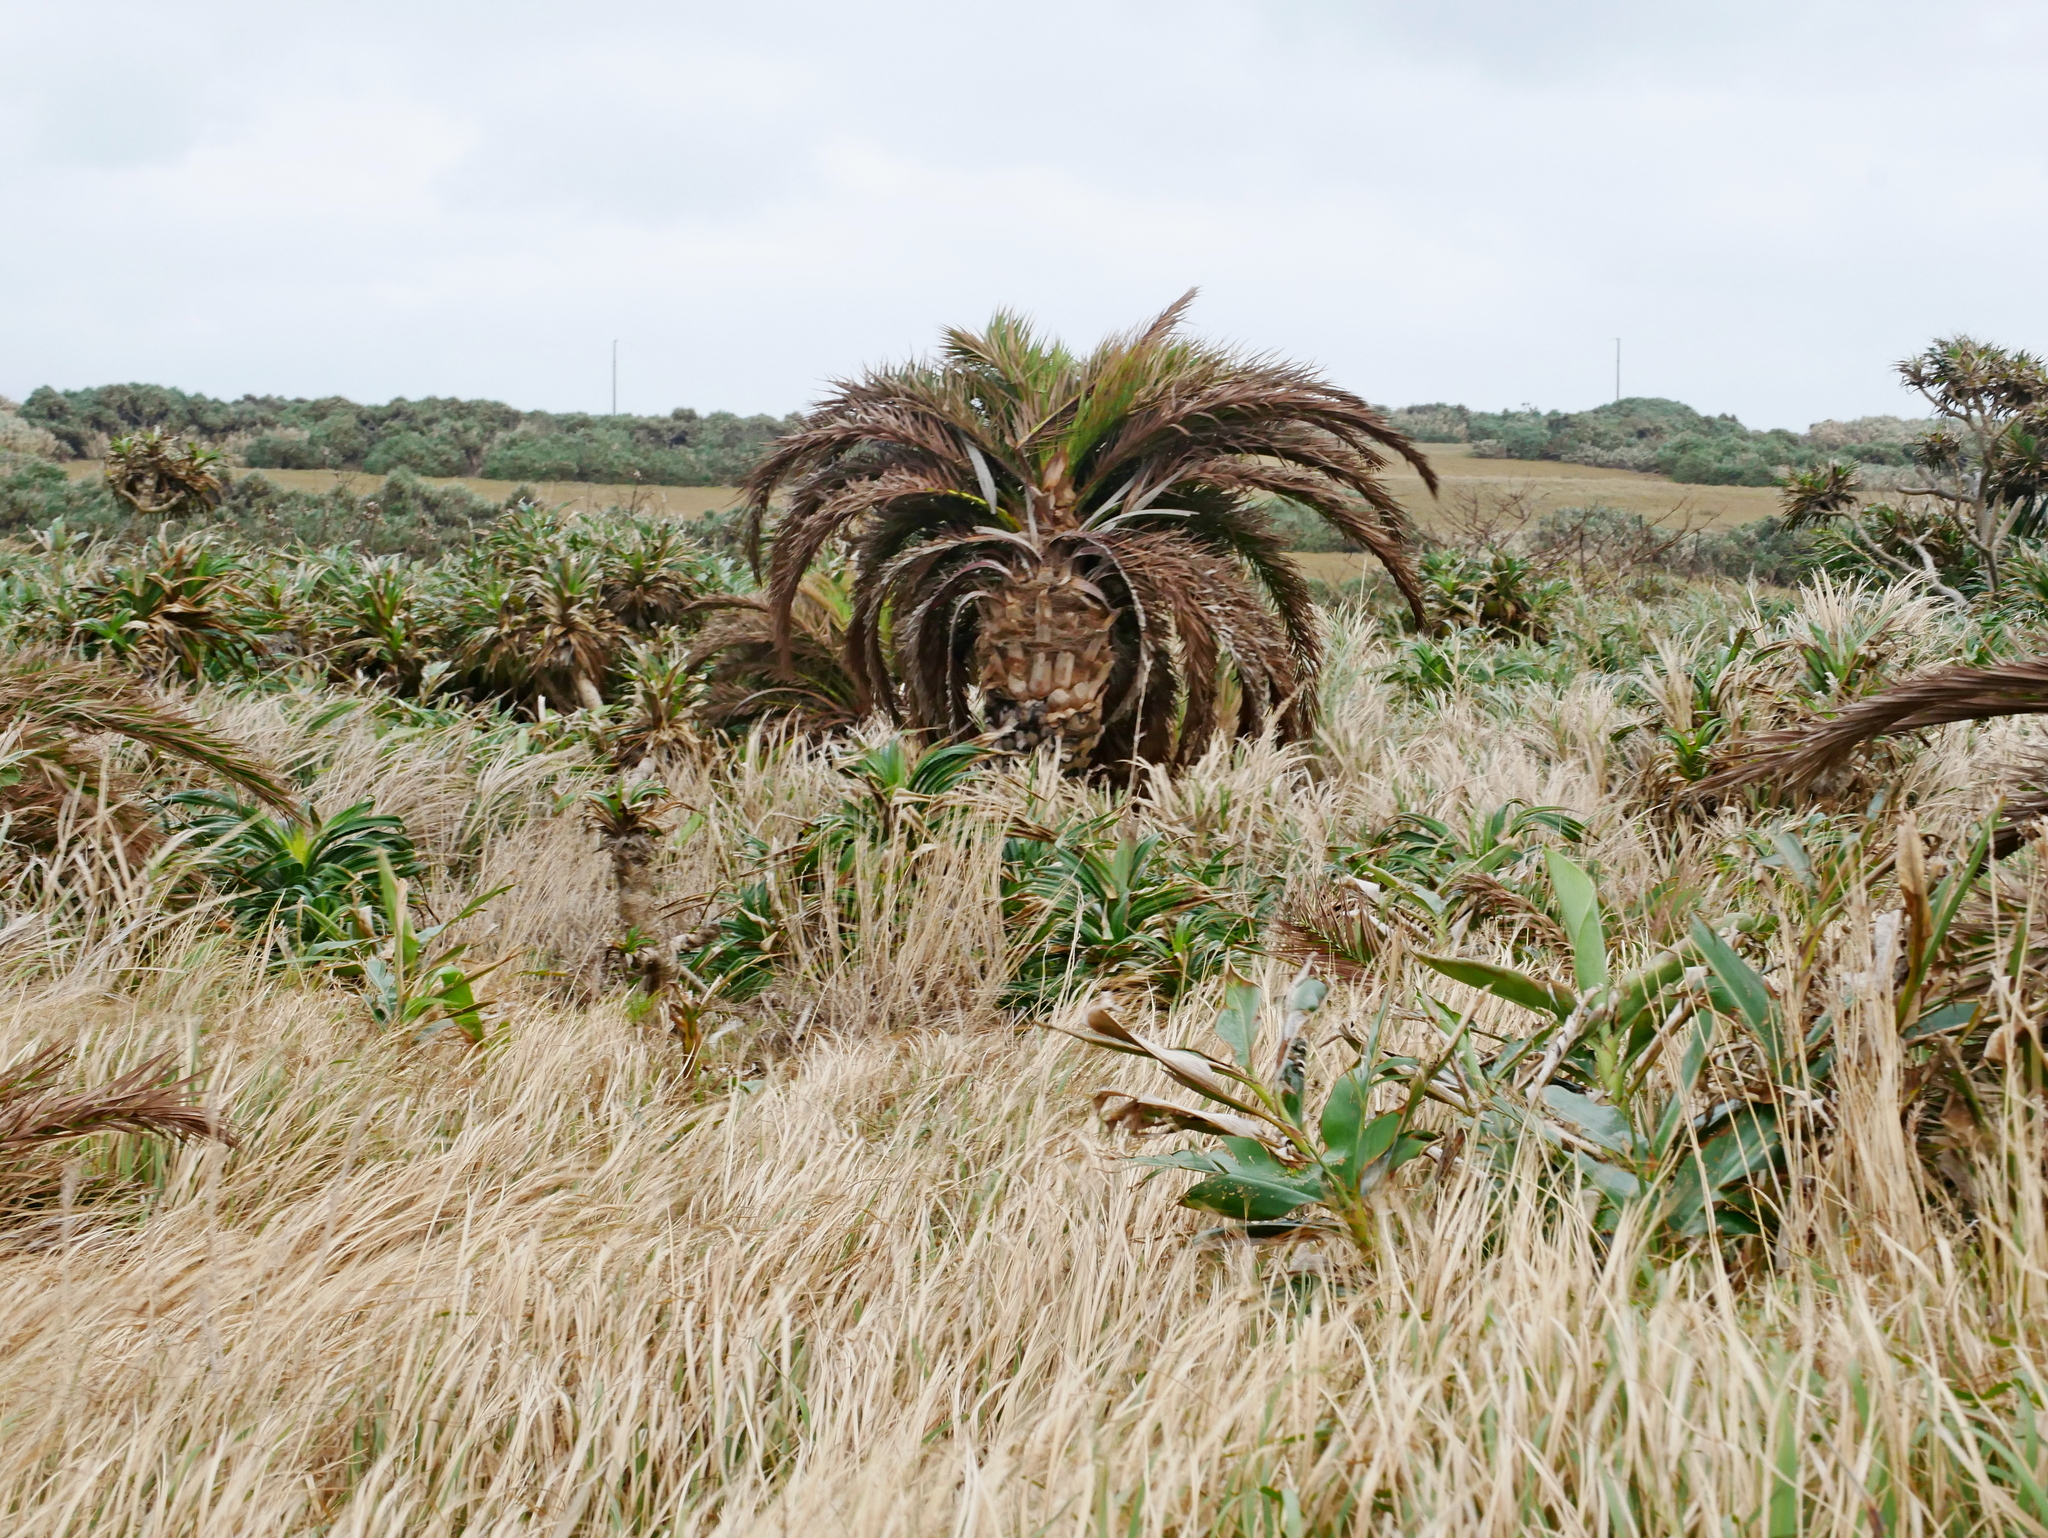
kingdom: Plantae
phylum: Tracheophyta
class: Liliopsida
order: Arecales
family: Arecaceae
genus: Phoenix
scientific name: Phoenix loureiroi
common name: Loureiro's palm
